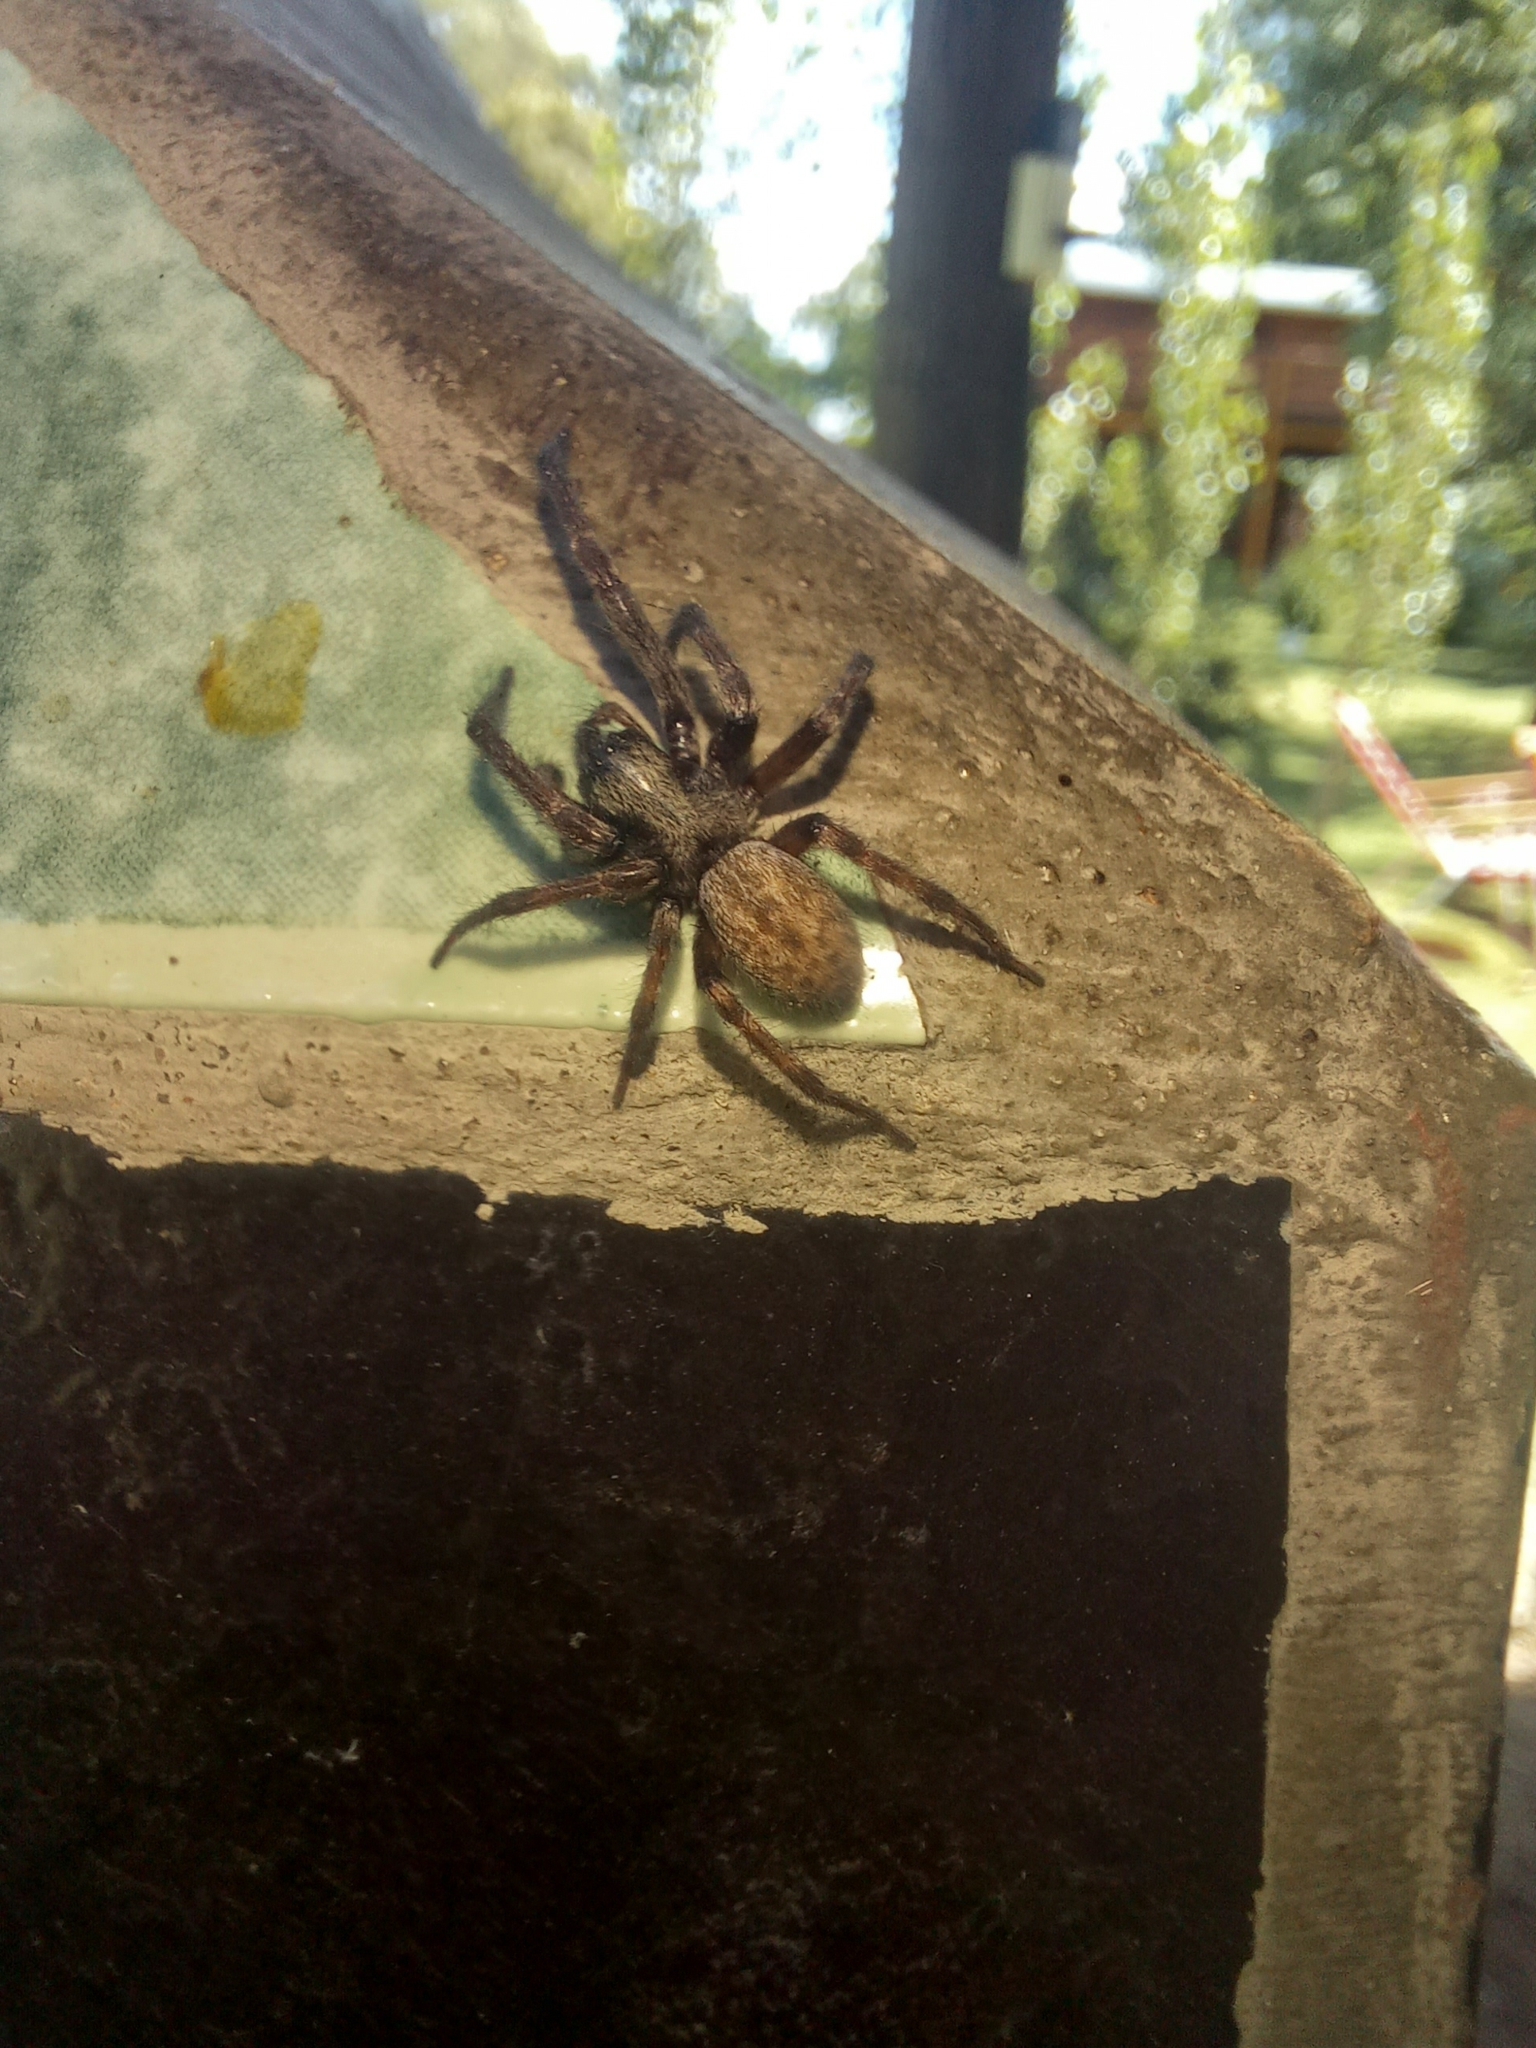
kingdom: Animalia
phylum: Arthropoda
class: Arachnida
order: Araneae
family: Desidae
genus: Badumna
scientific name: Badumna longinqua
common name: Gray house spider
